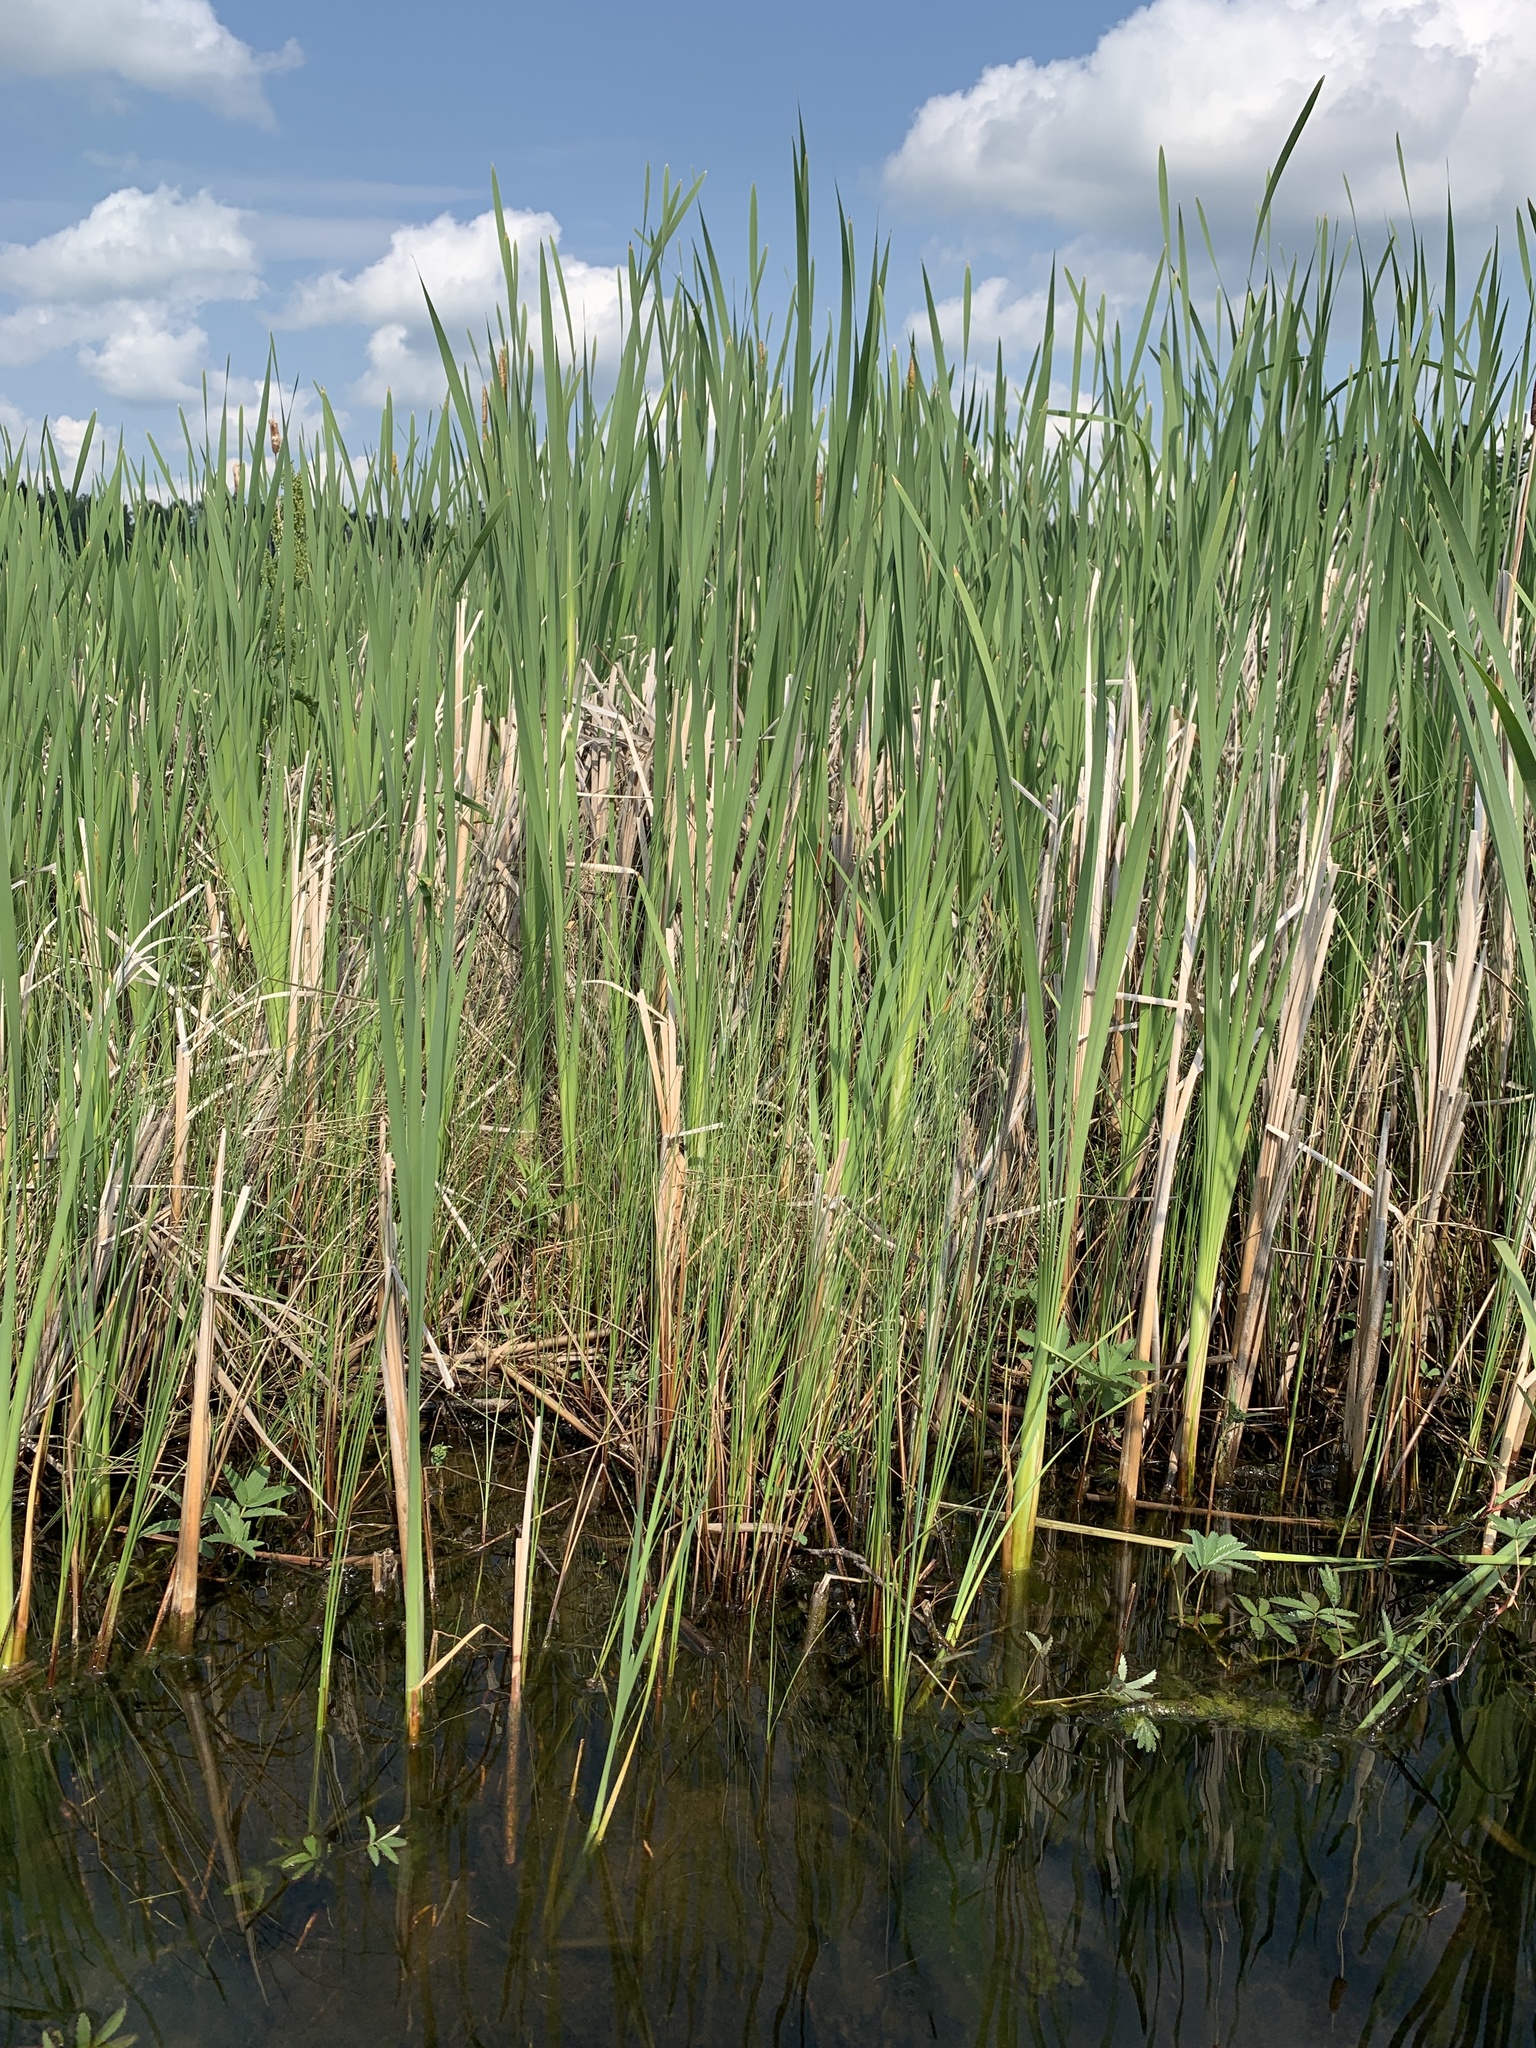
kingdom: Plantae
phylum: Tracheophyta
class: Liliopsida
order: Poales
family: Typhaceae
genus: Typha
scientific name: Typha latifolia
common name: Broadleaf cattail
